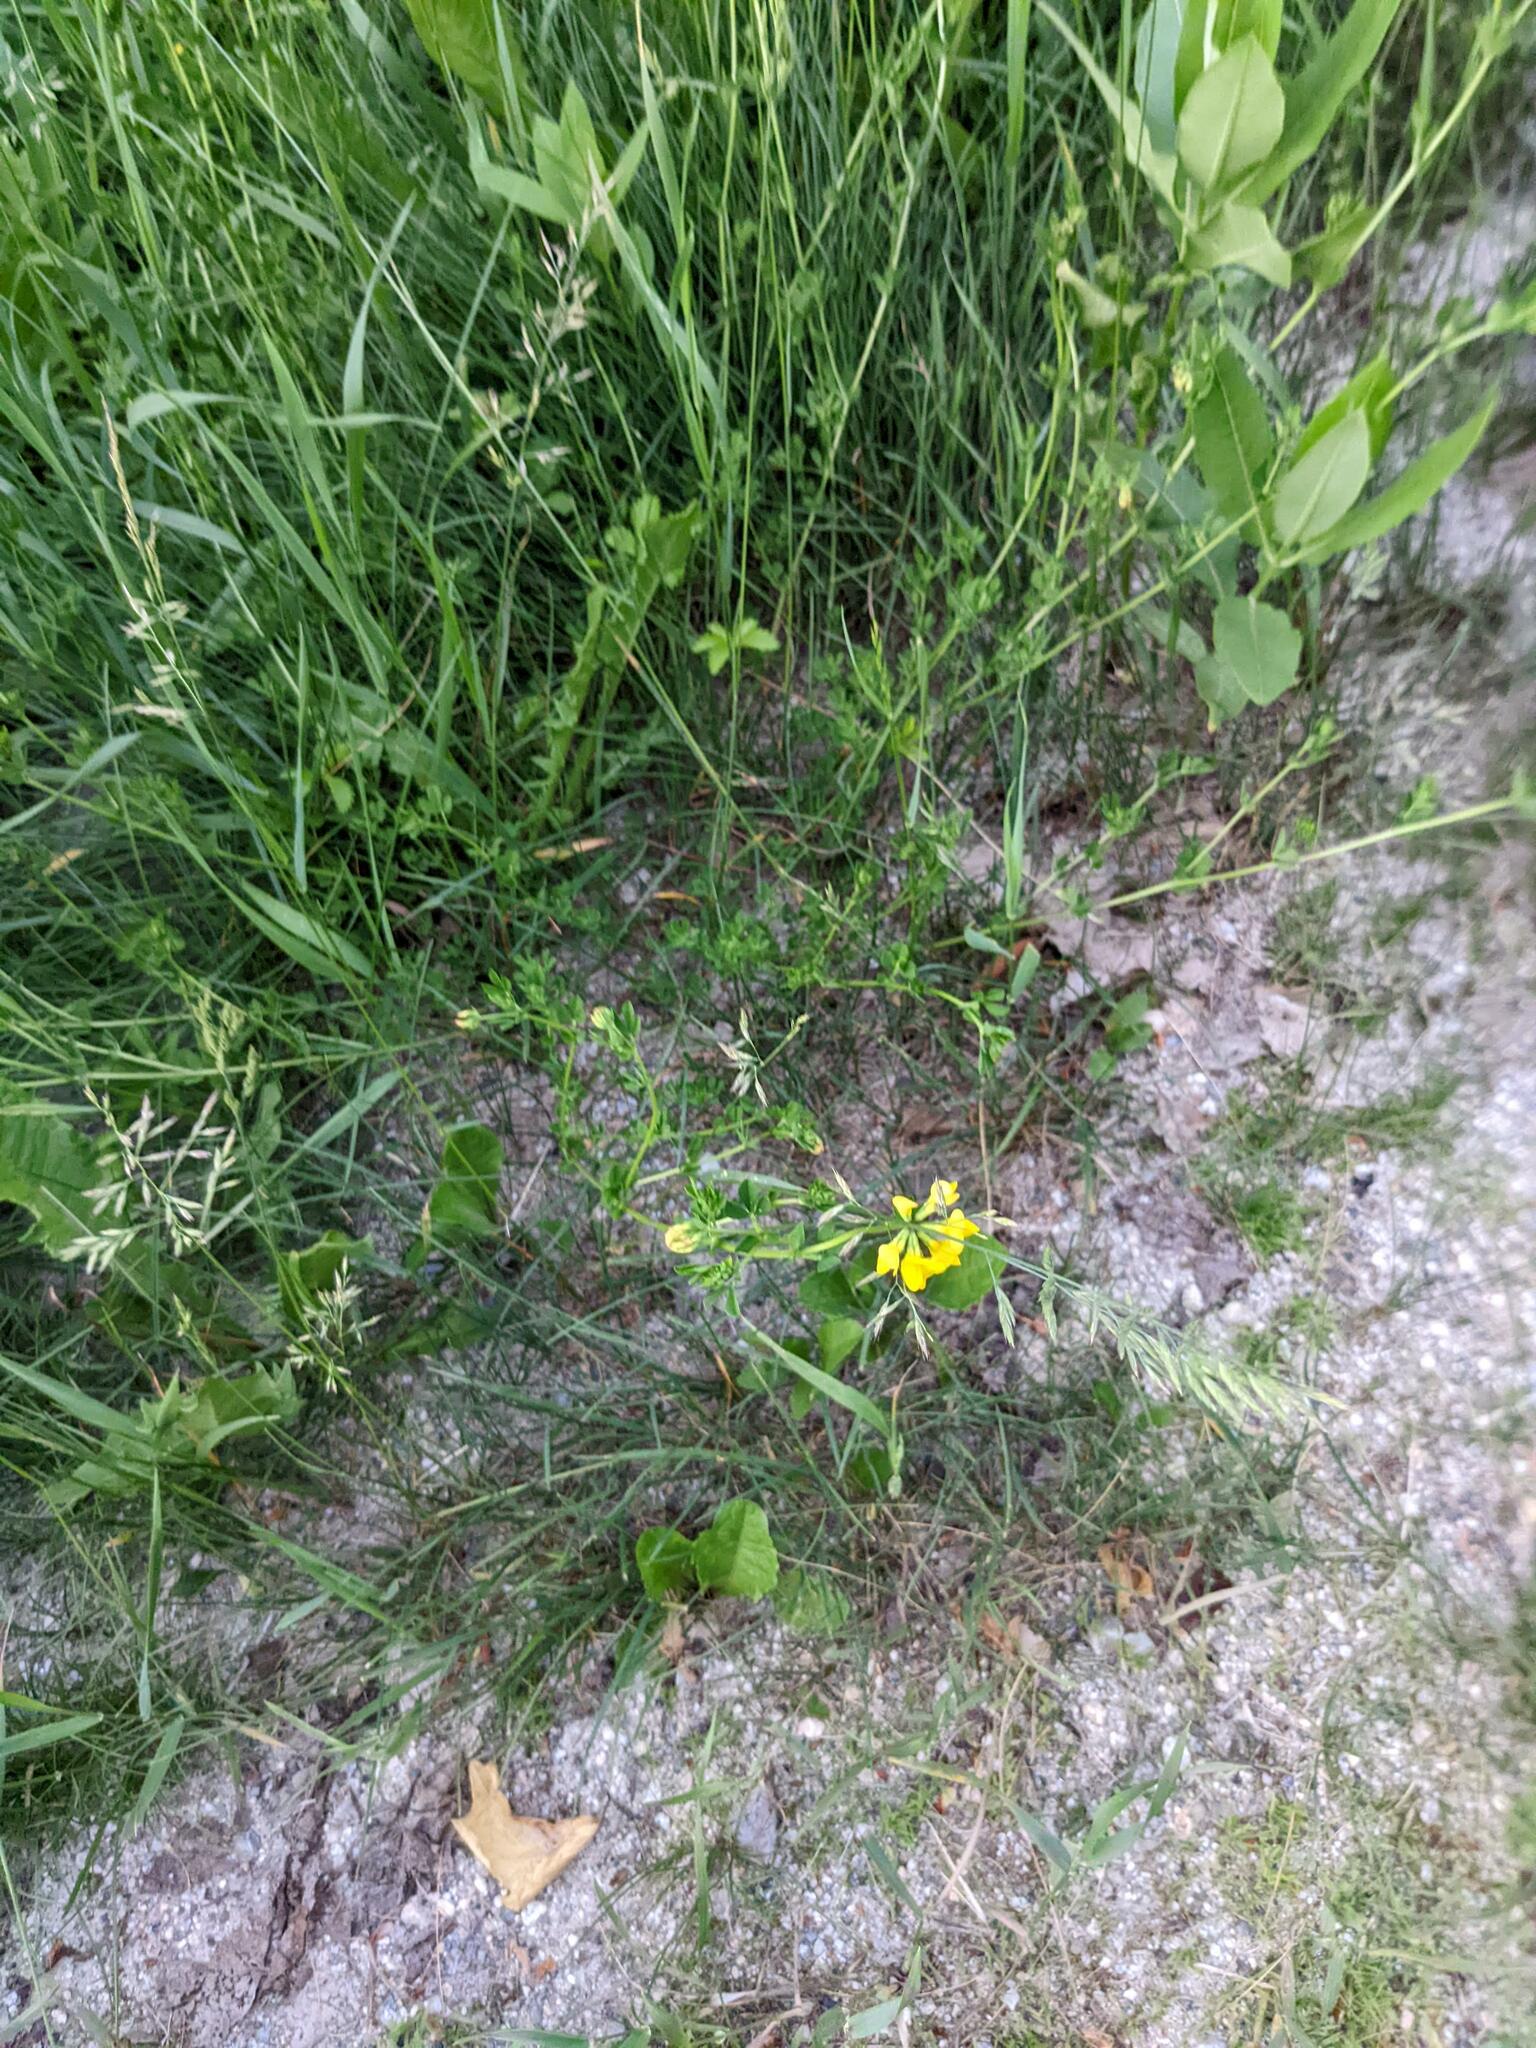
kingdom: Plantae
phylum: Tracheophyta
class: Magnoliopsida
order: Fabales
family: Fabaceae
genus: Lotus
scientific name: Lotus corniculatus
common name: Common bird's-foot-trefoil
